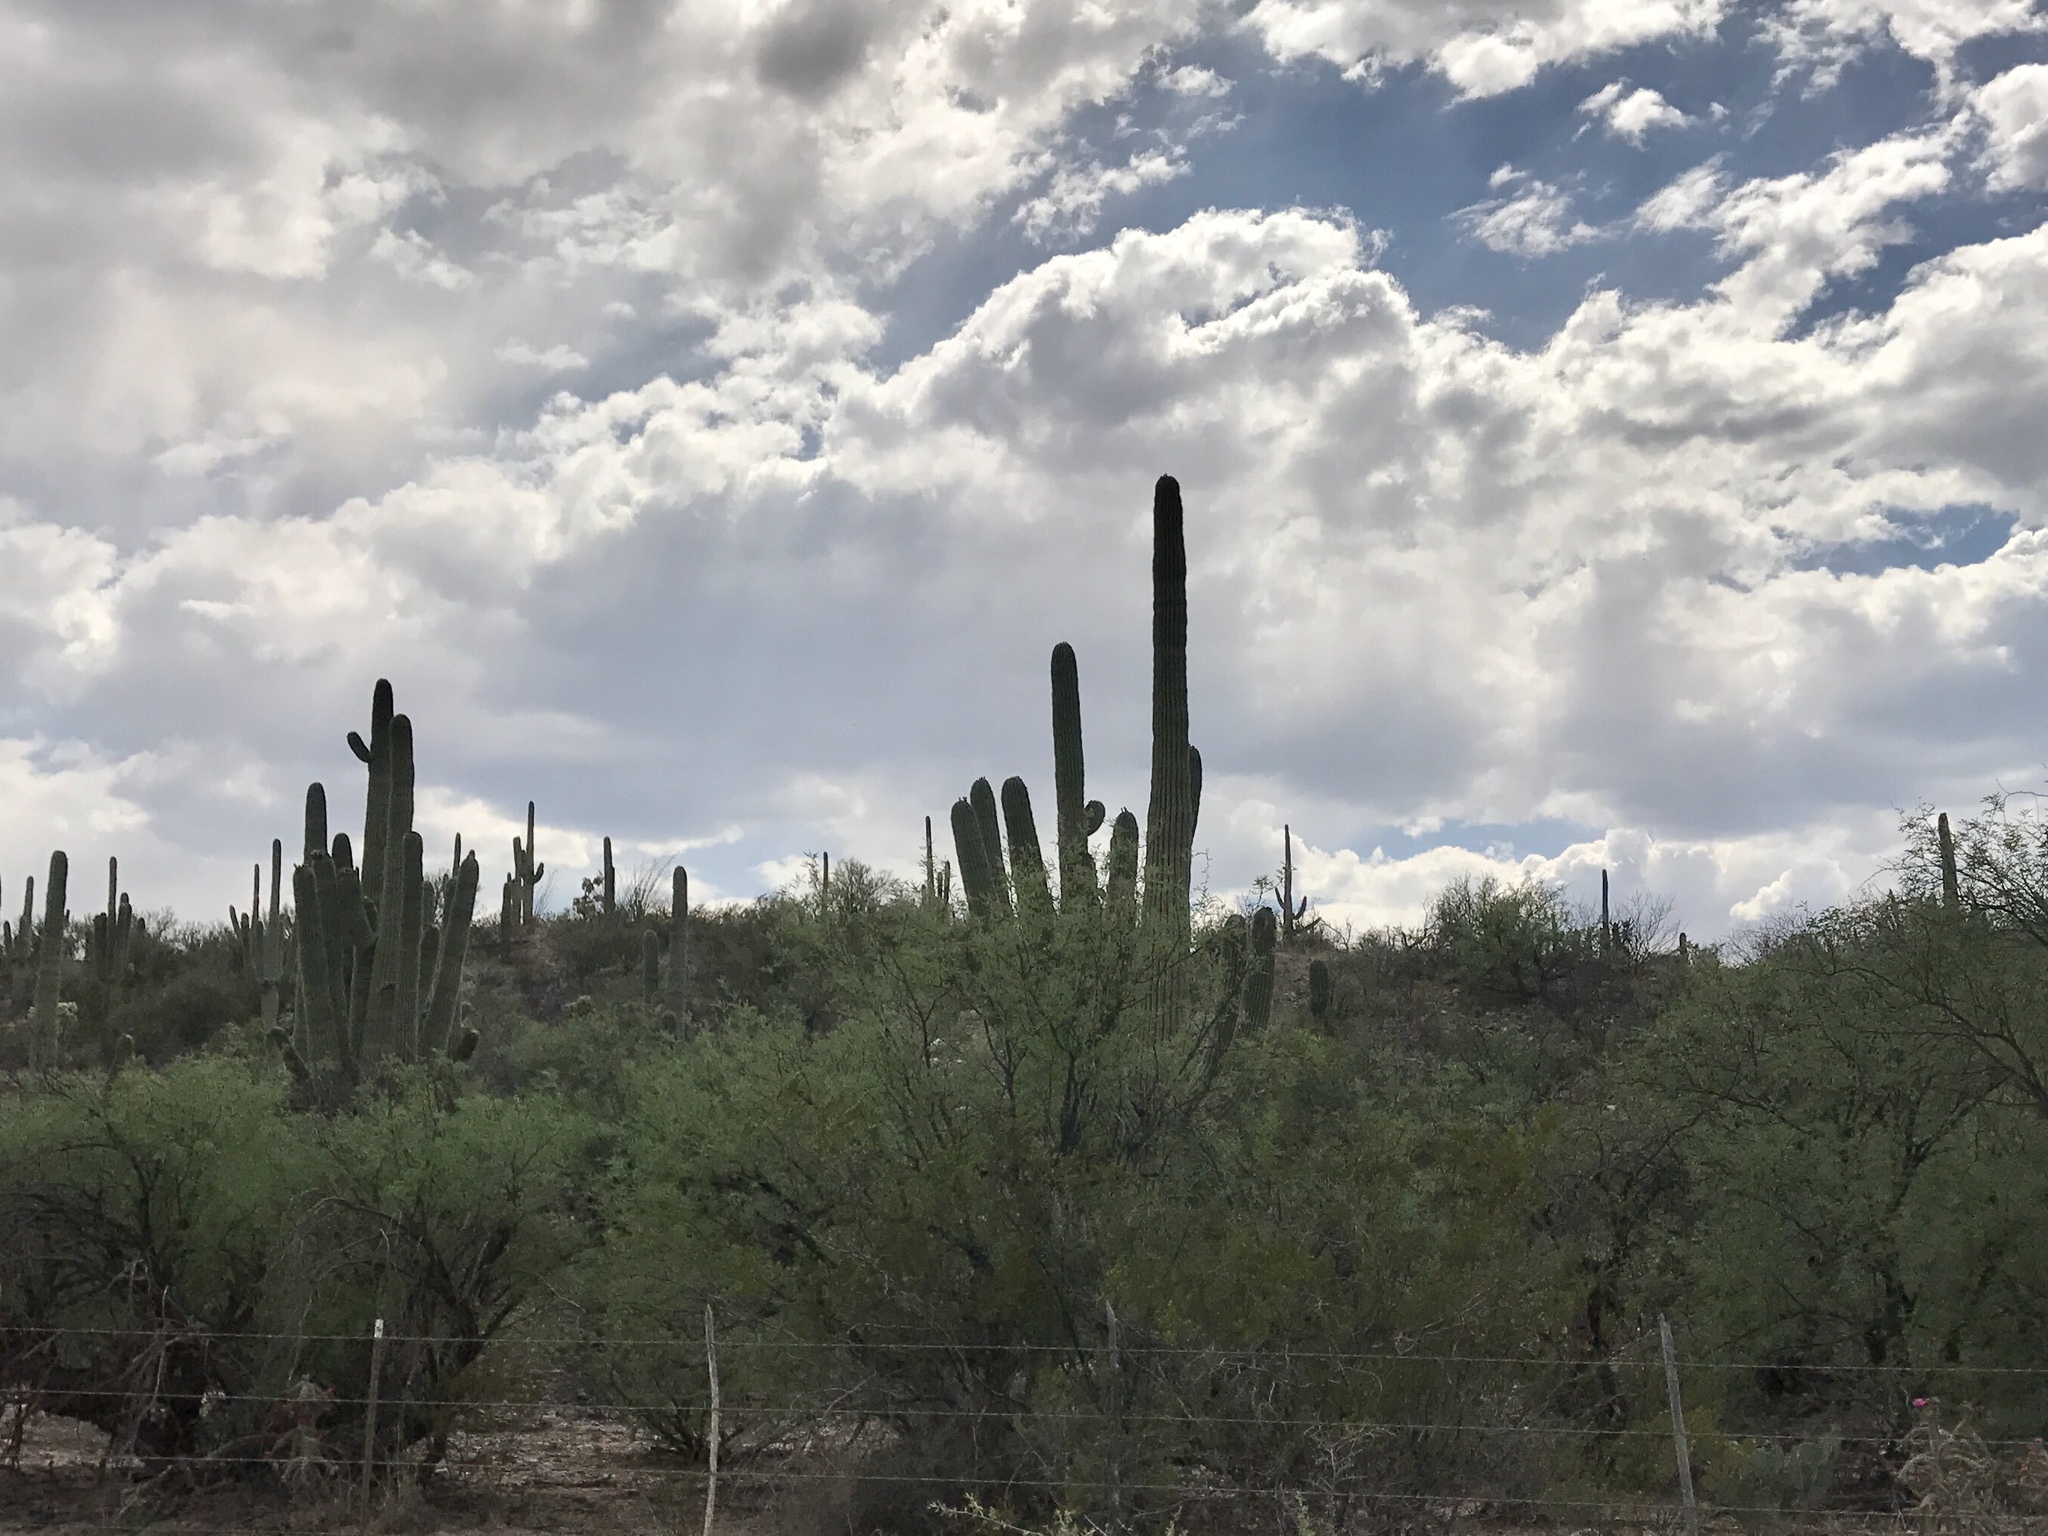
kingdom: Plantae
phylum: Tracheophyta
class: Magnoliopsida
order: Caryophyllales
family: Cactaceae
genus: Carnegiea
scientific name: Carnegiea gigantea
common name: Saguaro
